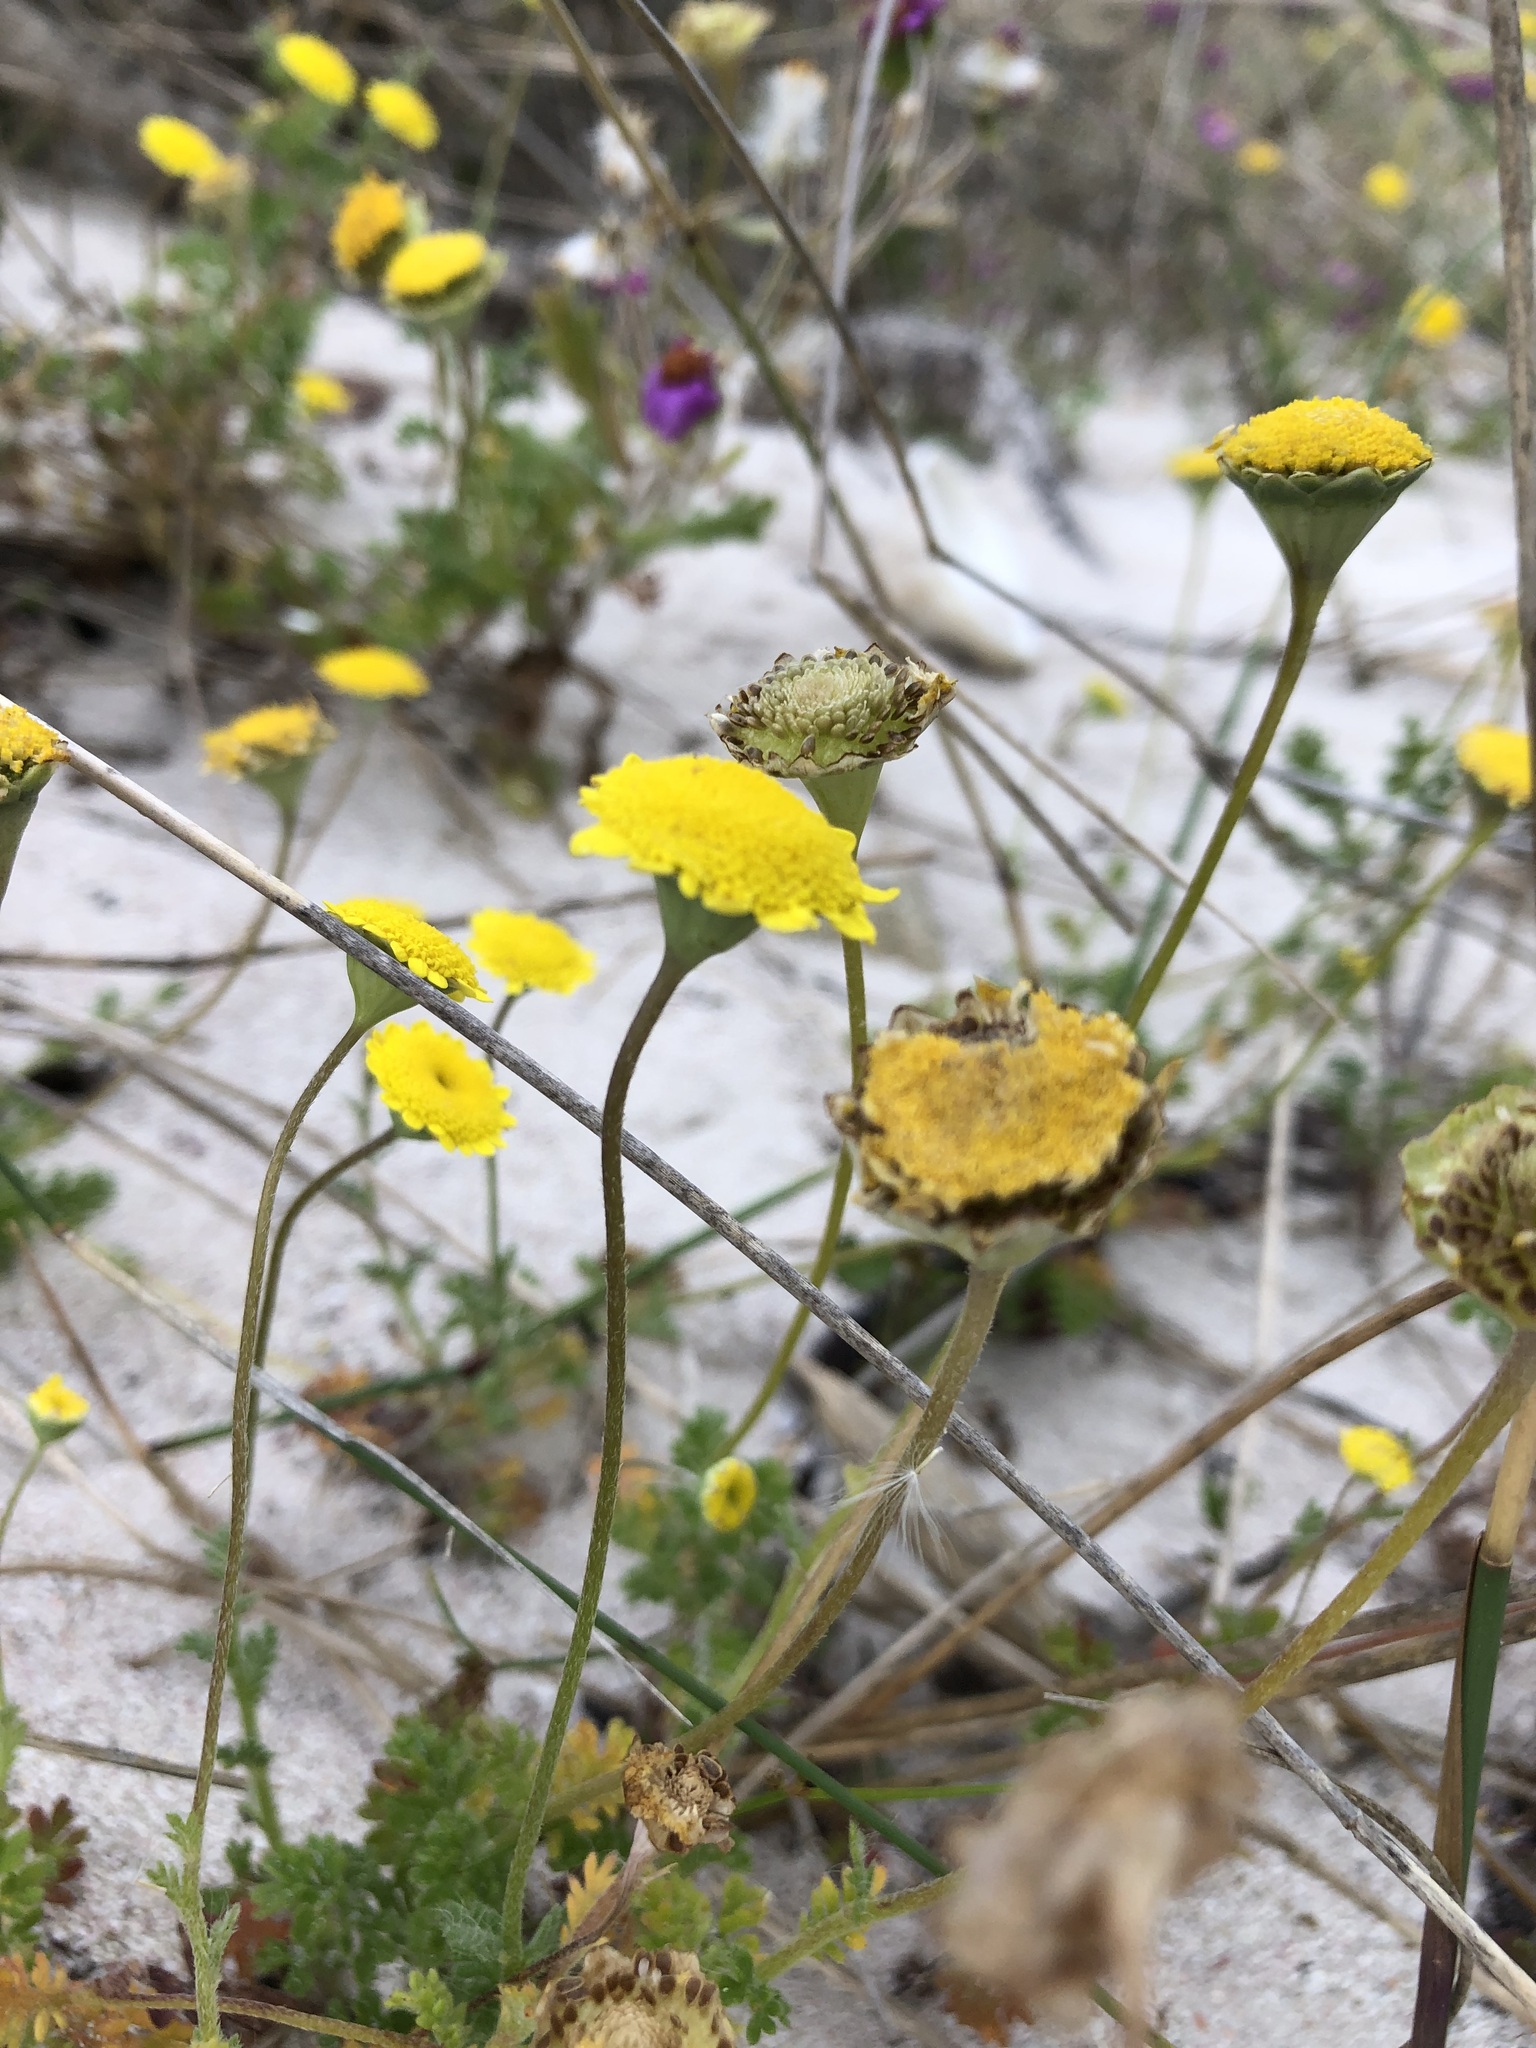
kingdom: Plantae
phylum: Tracheophyta
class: Magnoliopsida
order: Asterales
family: Asteraceae
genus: Cotula
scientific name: Cotula pruinosa
